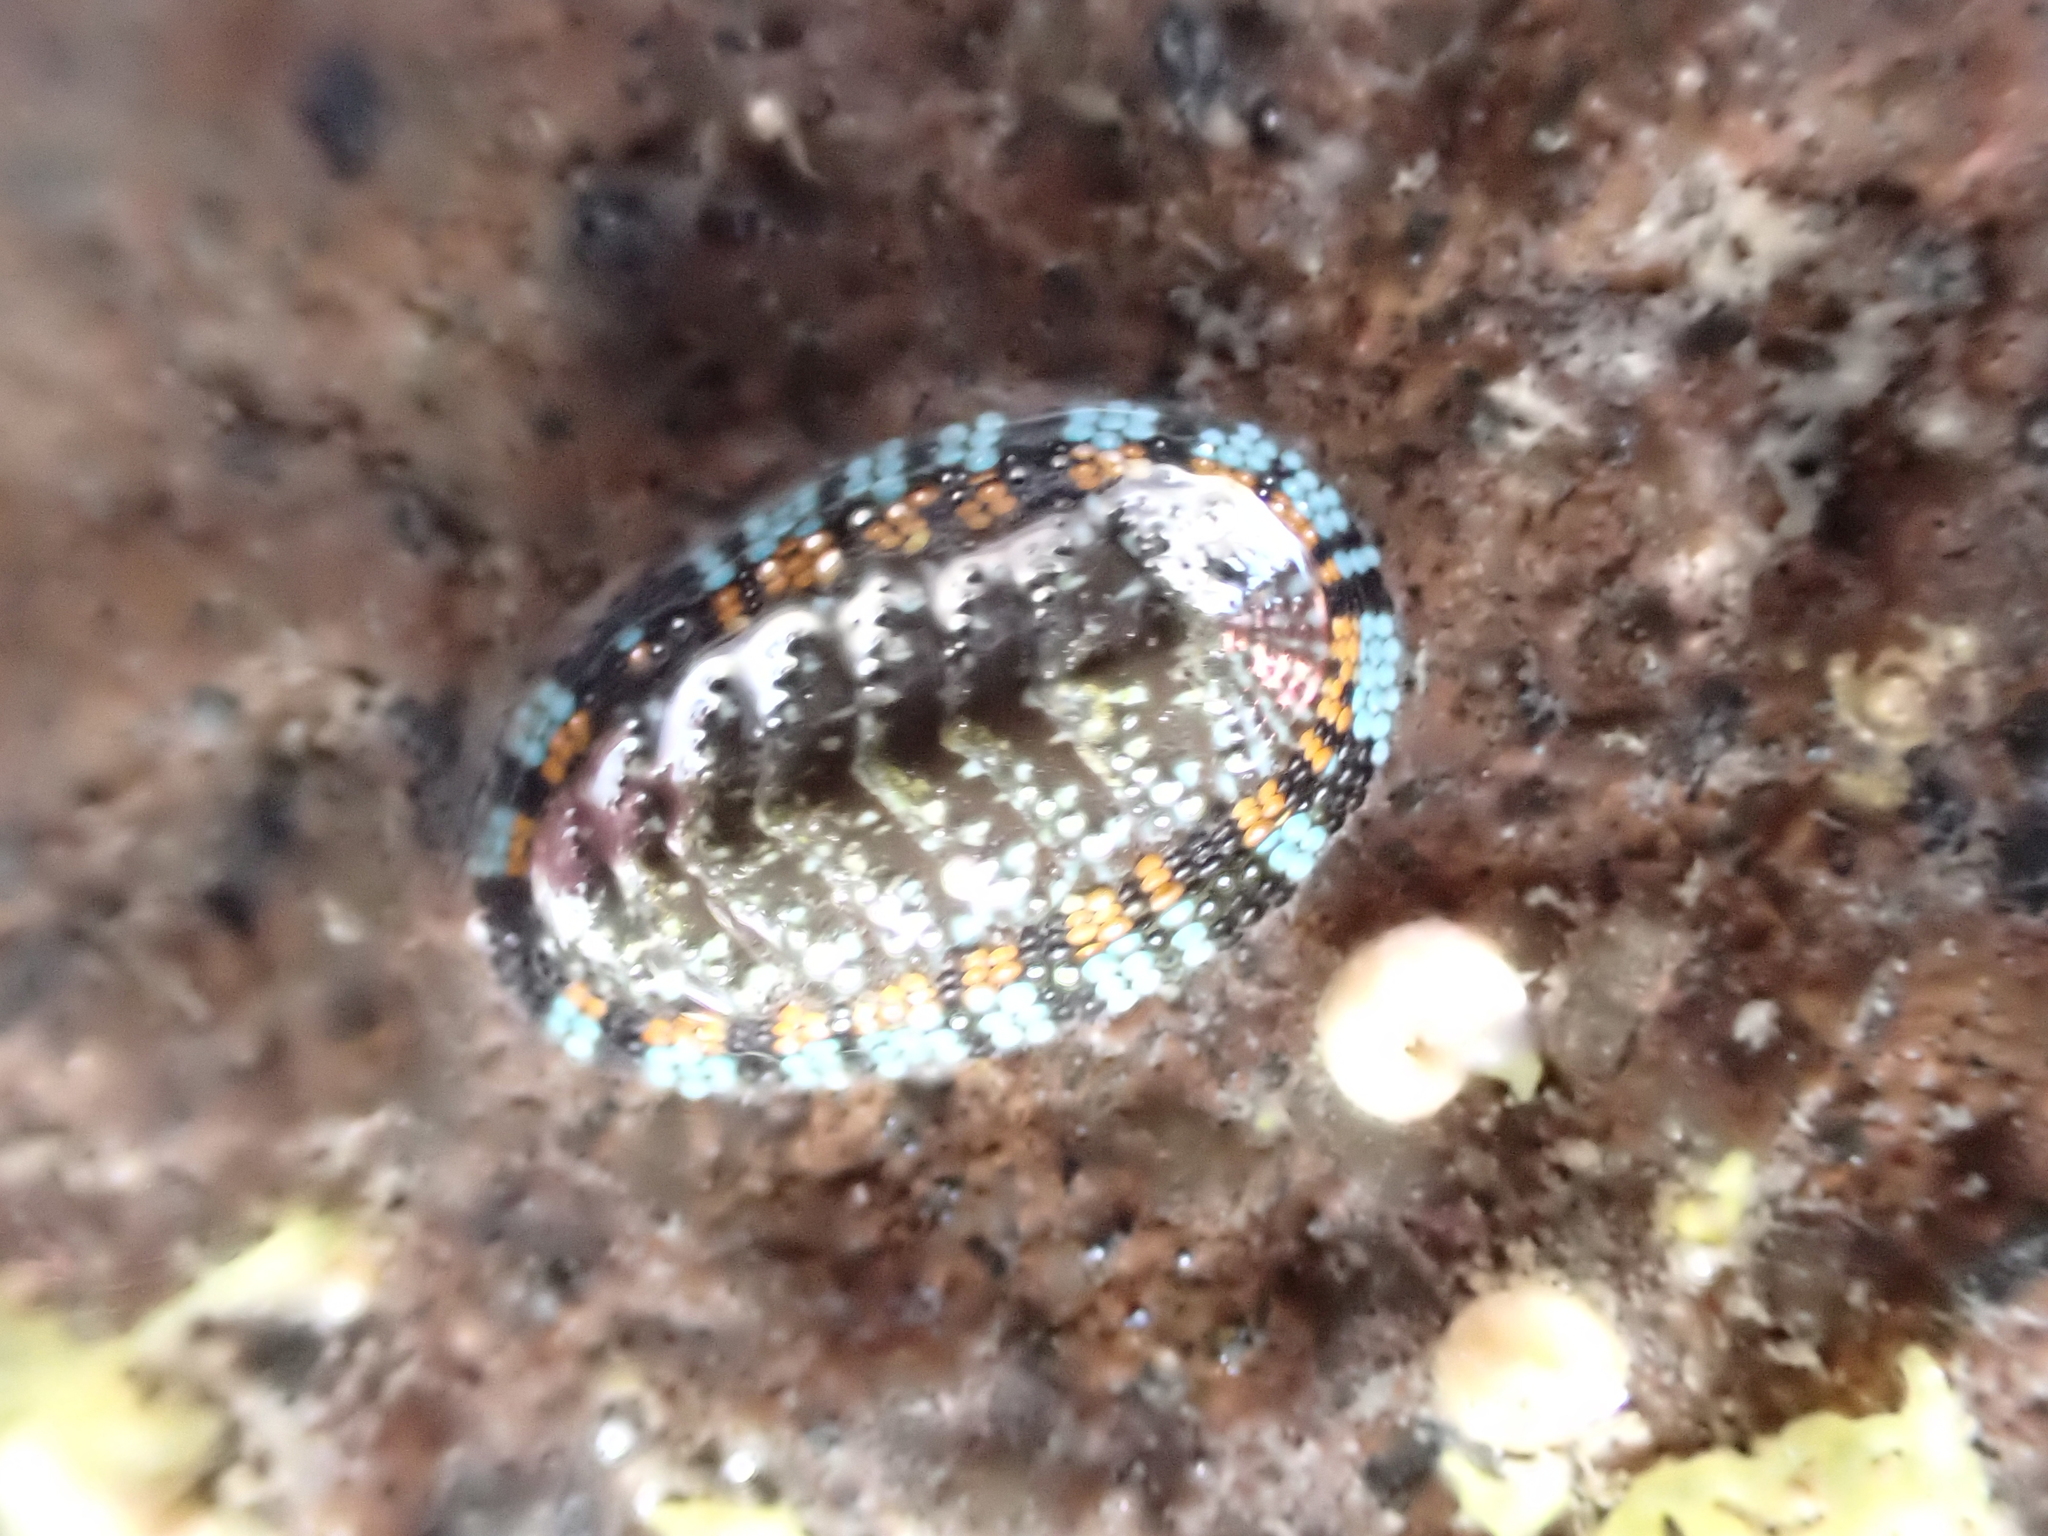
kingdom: Animalia
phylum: Mollusca
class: Polyplacophora
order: Chitonida
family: Chitonidae
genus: Sypharochiton
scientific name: Sypharochiton sinclairi
